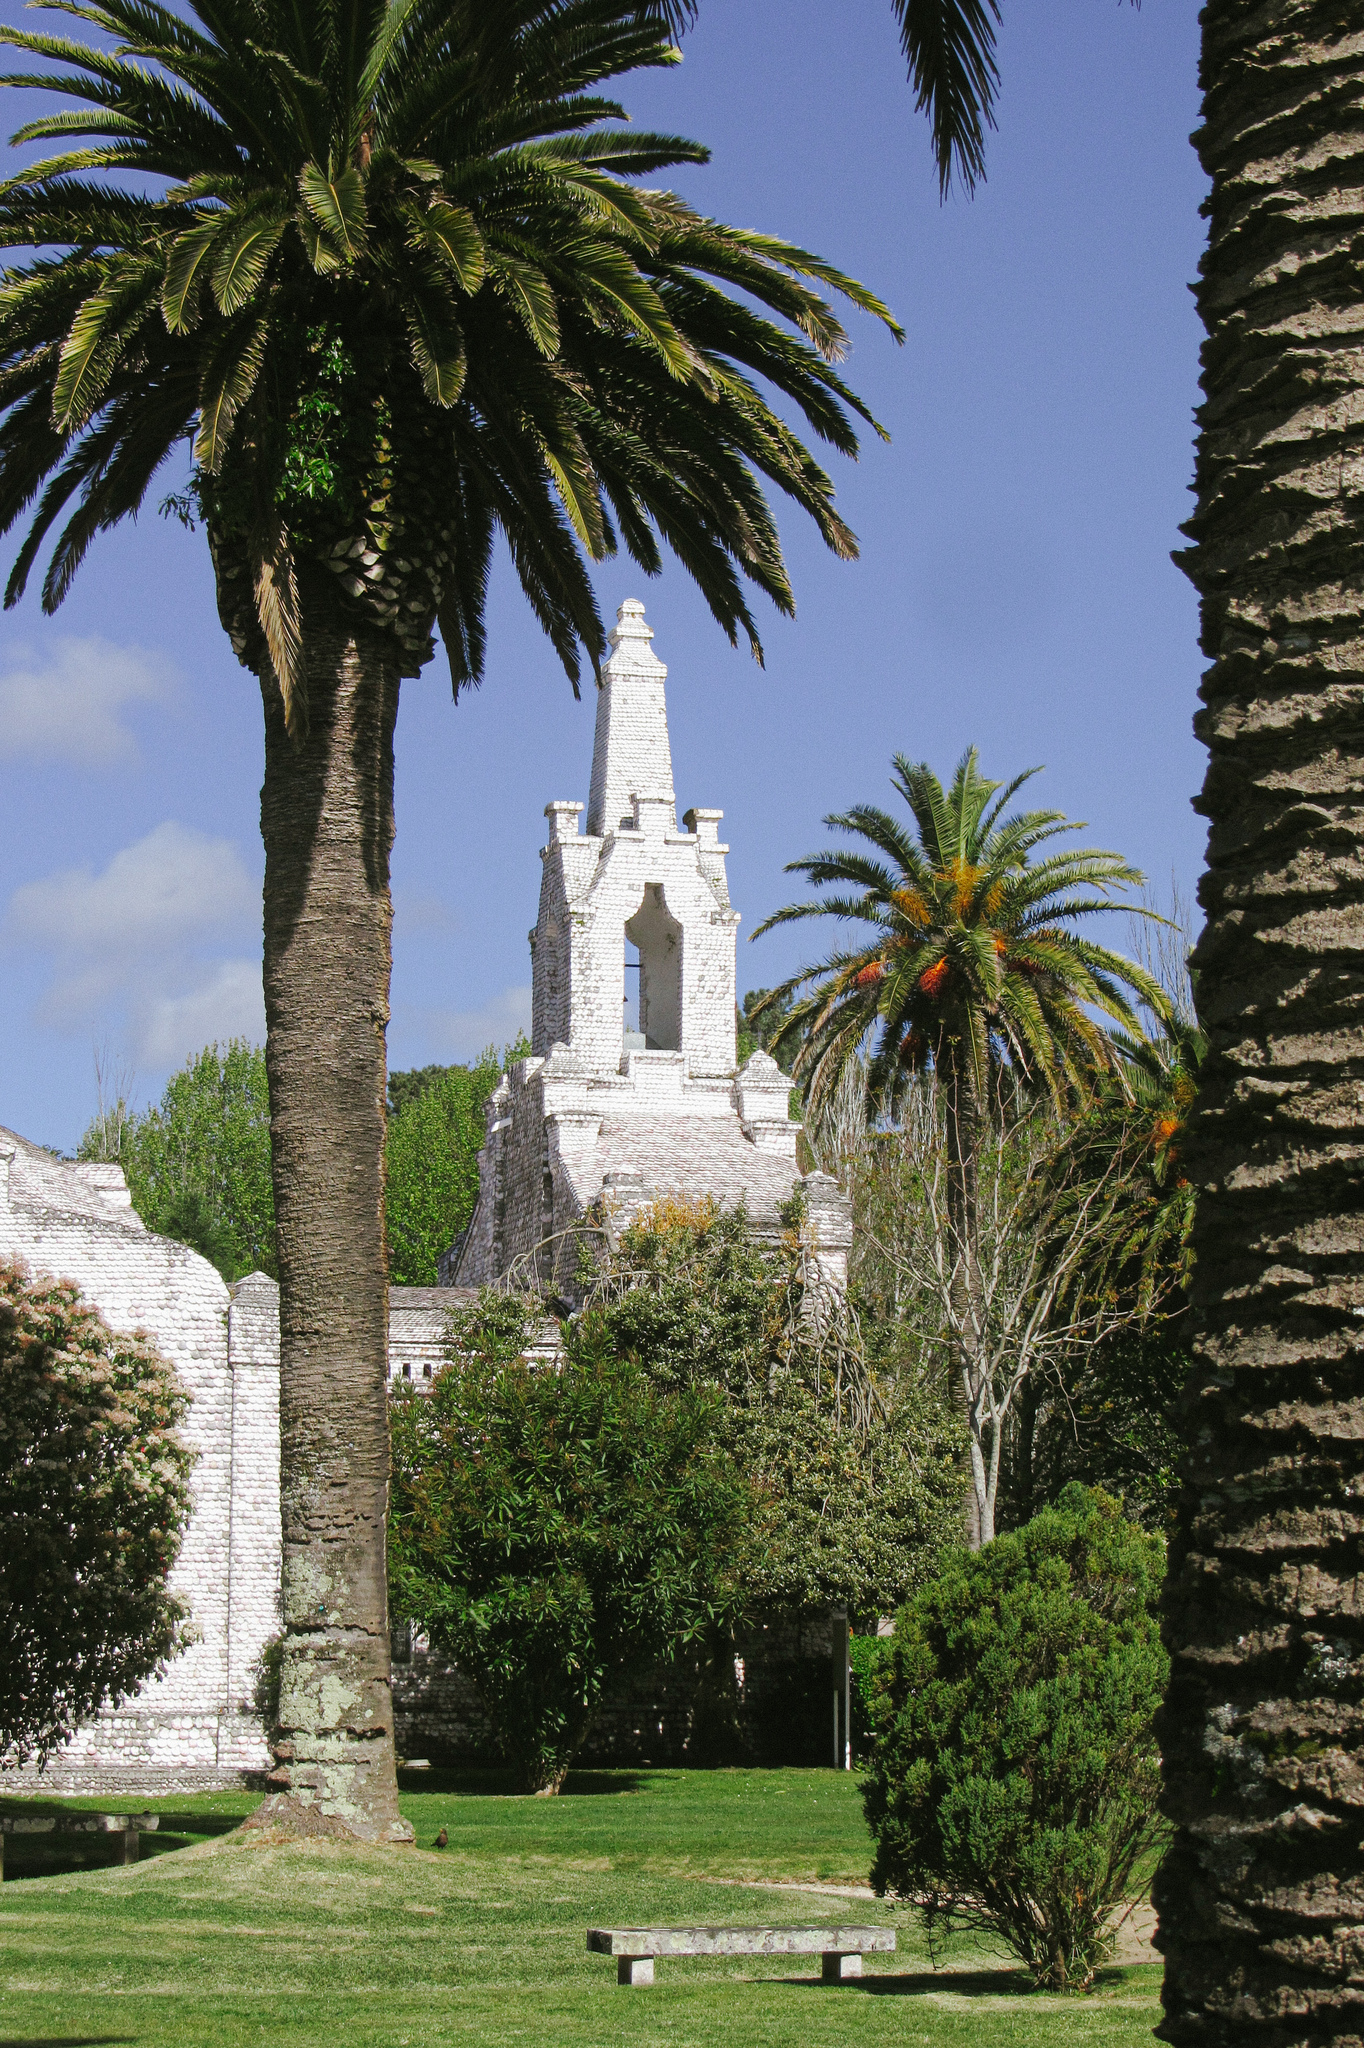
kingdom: Plantae
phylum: Tracheophyta
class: Liliopsida
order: Arecales
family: Arecaceae
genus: Phoenix
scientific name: Phoenix canariensis
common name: Canary island date palm
